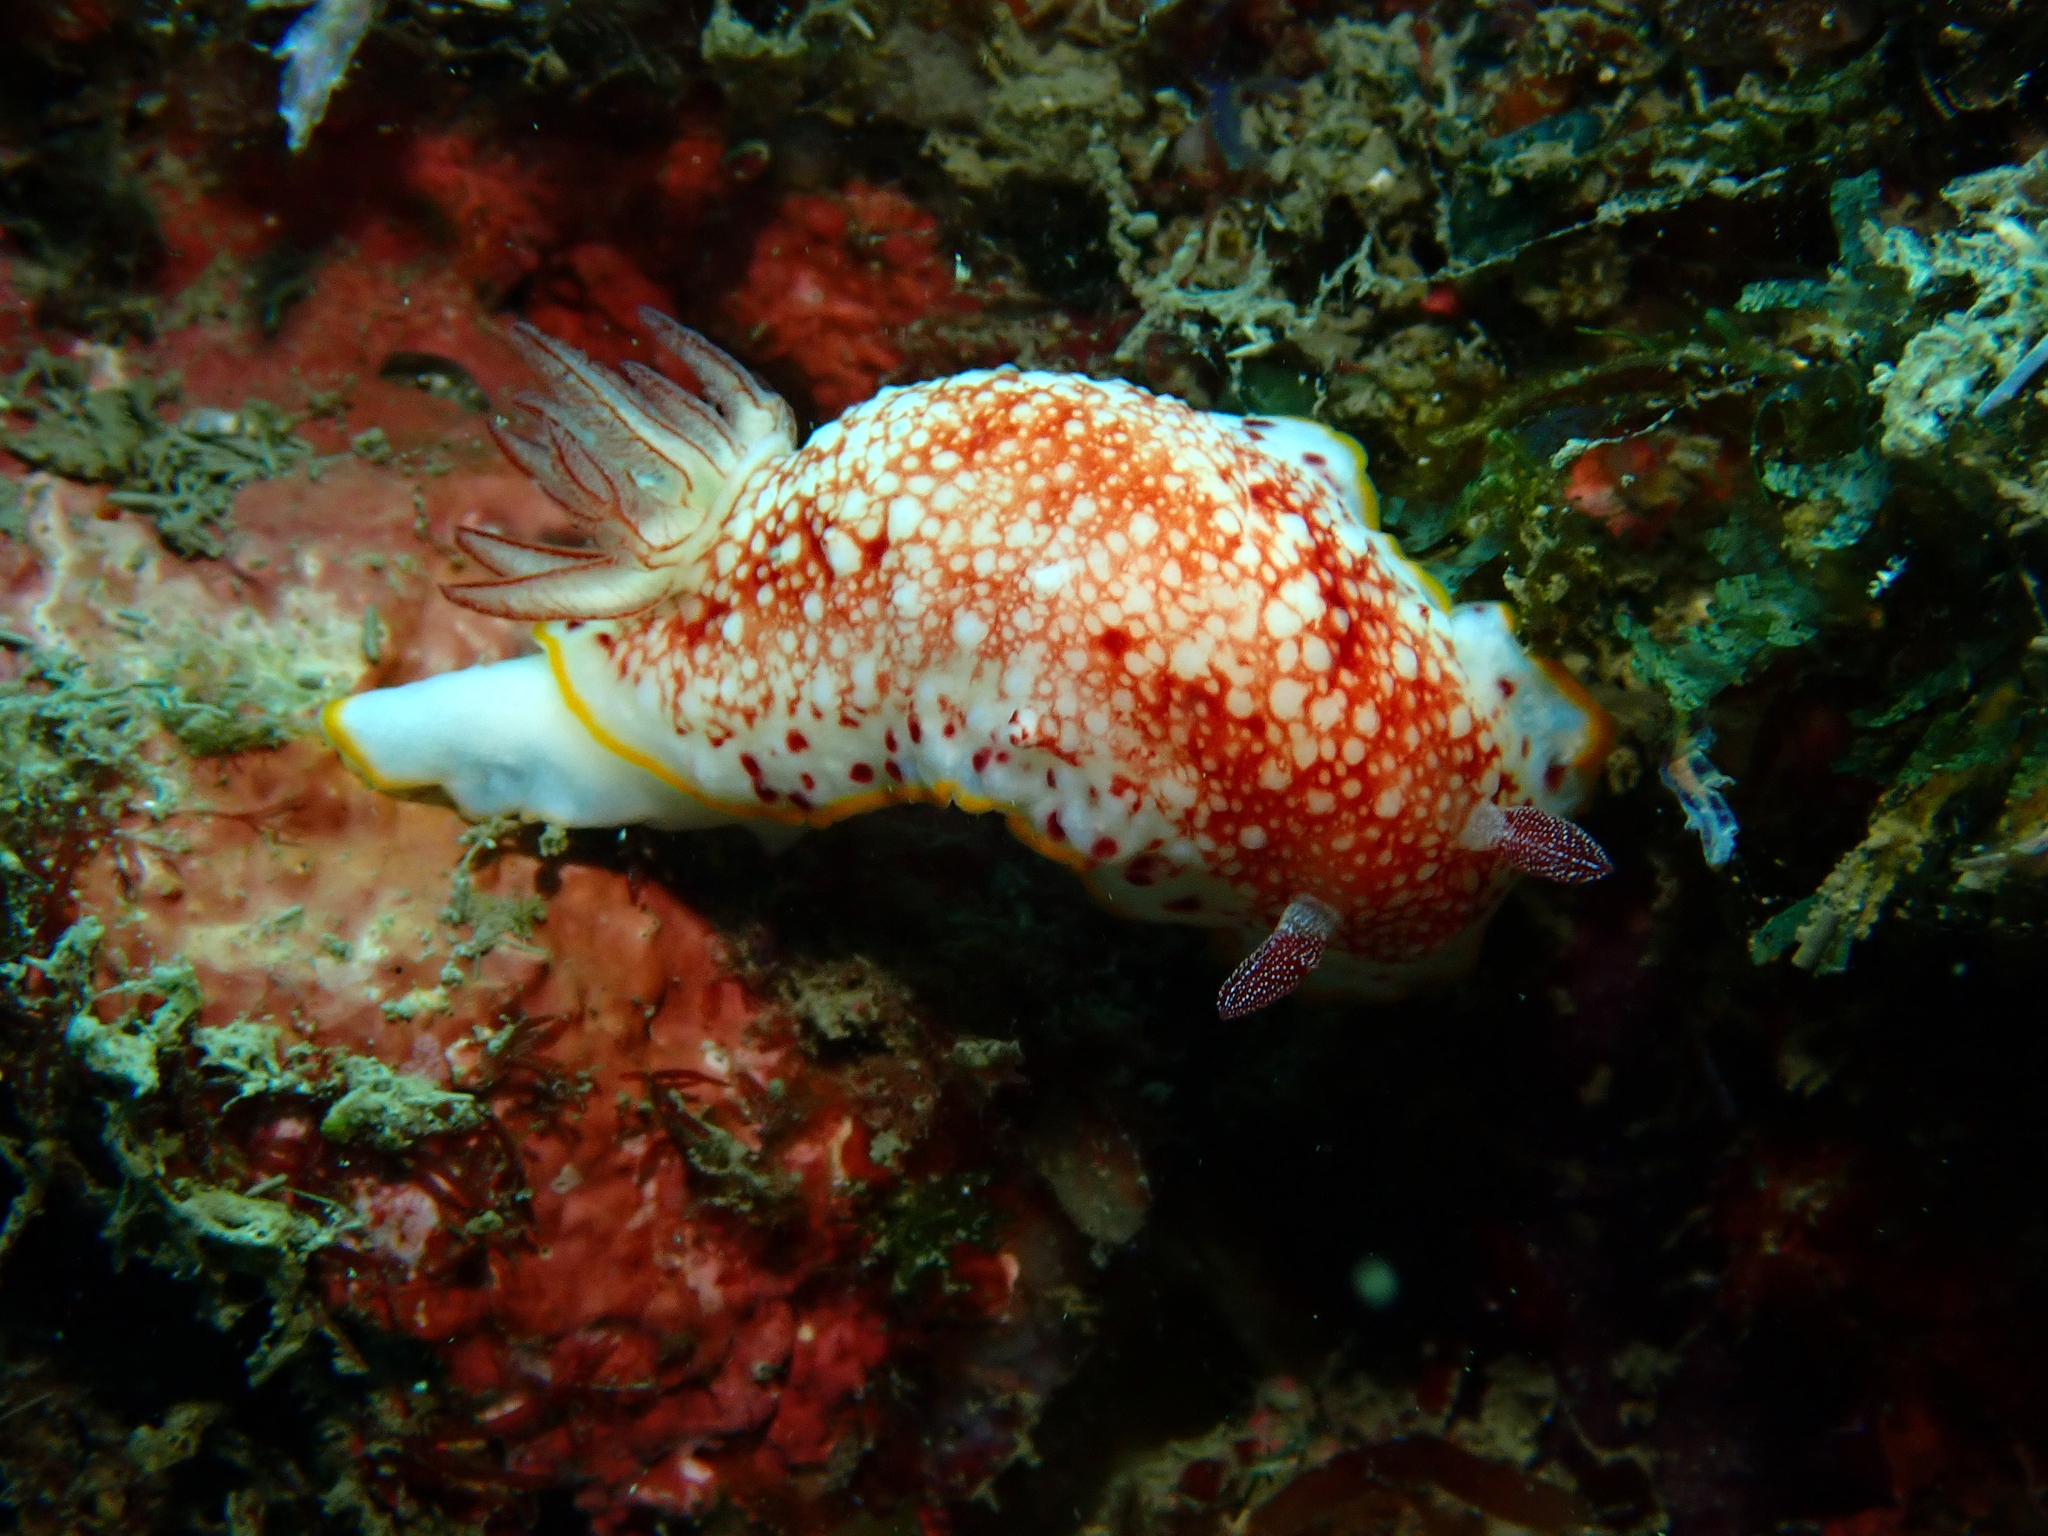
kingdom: Animalia
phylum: Mollusca
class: Gastropoda
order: Nudibranchia
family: Chromodorididae
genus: Goniobranchus
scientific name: Goniobranchus alderi
